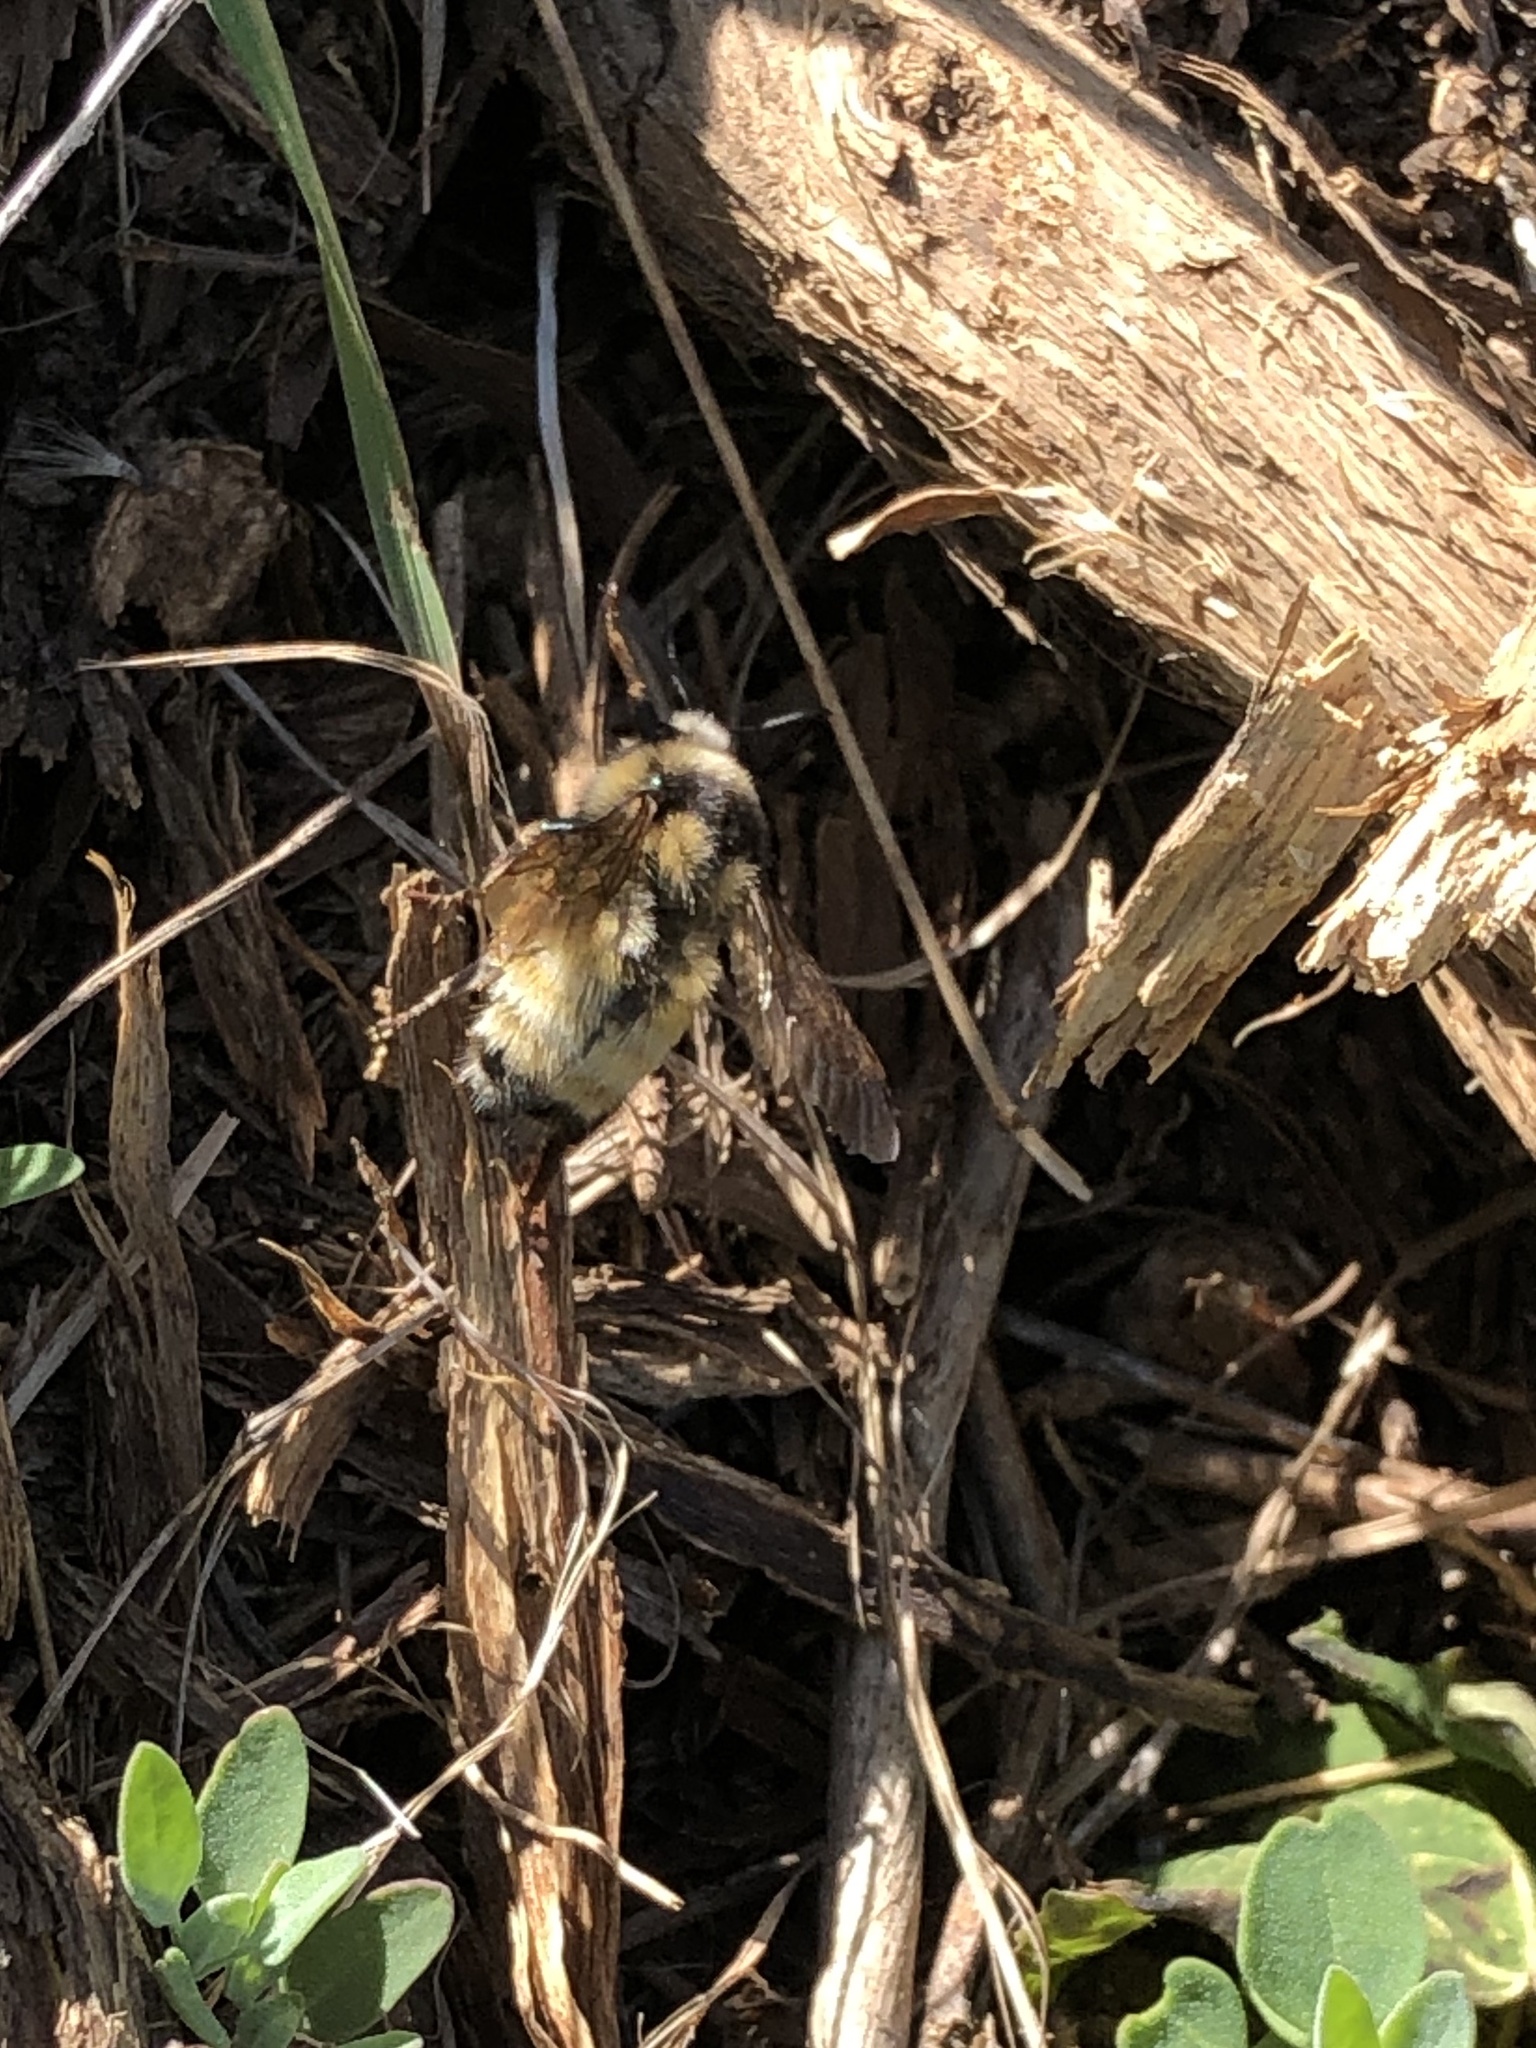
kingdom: Animalia
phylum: Arthropoda
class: Insecta
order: Hymenoptera
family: Apidae
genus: Bombus
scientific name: Bombus
